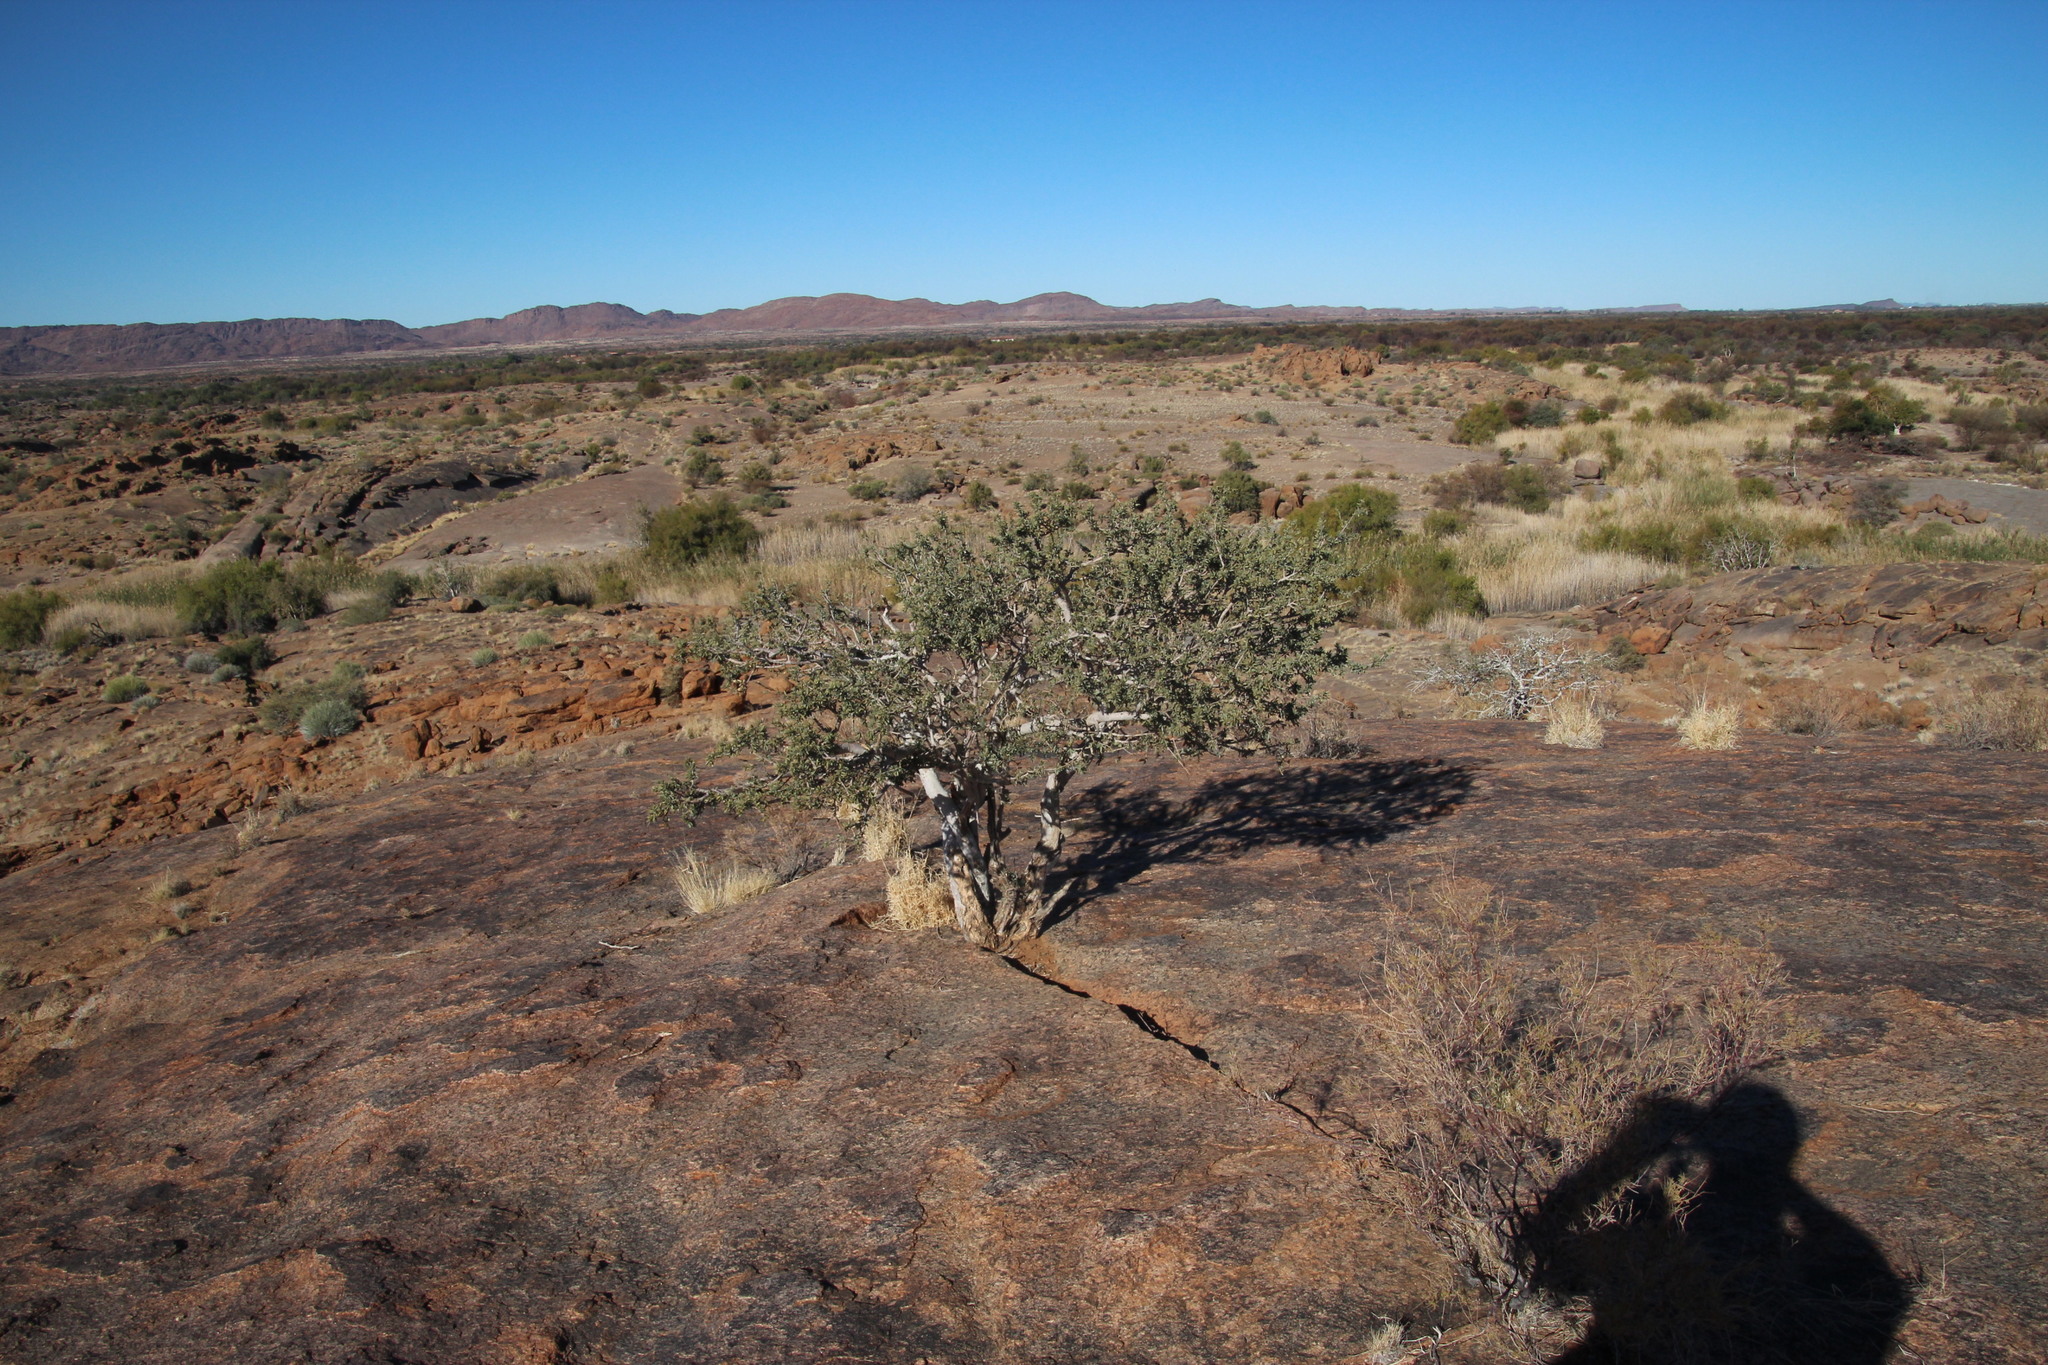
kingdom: Plantae
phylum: Tracheophyta
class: Magnoliopsida
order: Brassicales
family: Capparaceae
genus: Boscia
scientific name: Boscia albitrunca
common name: Caper bush
